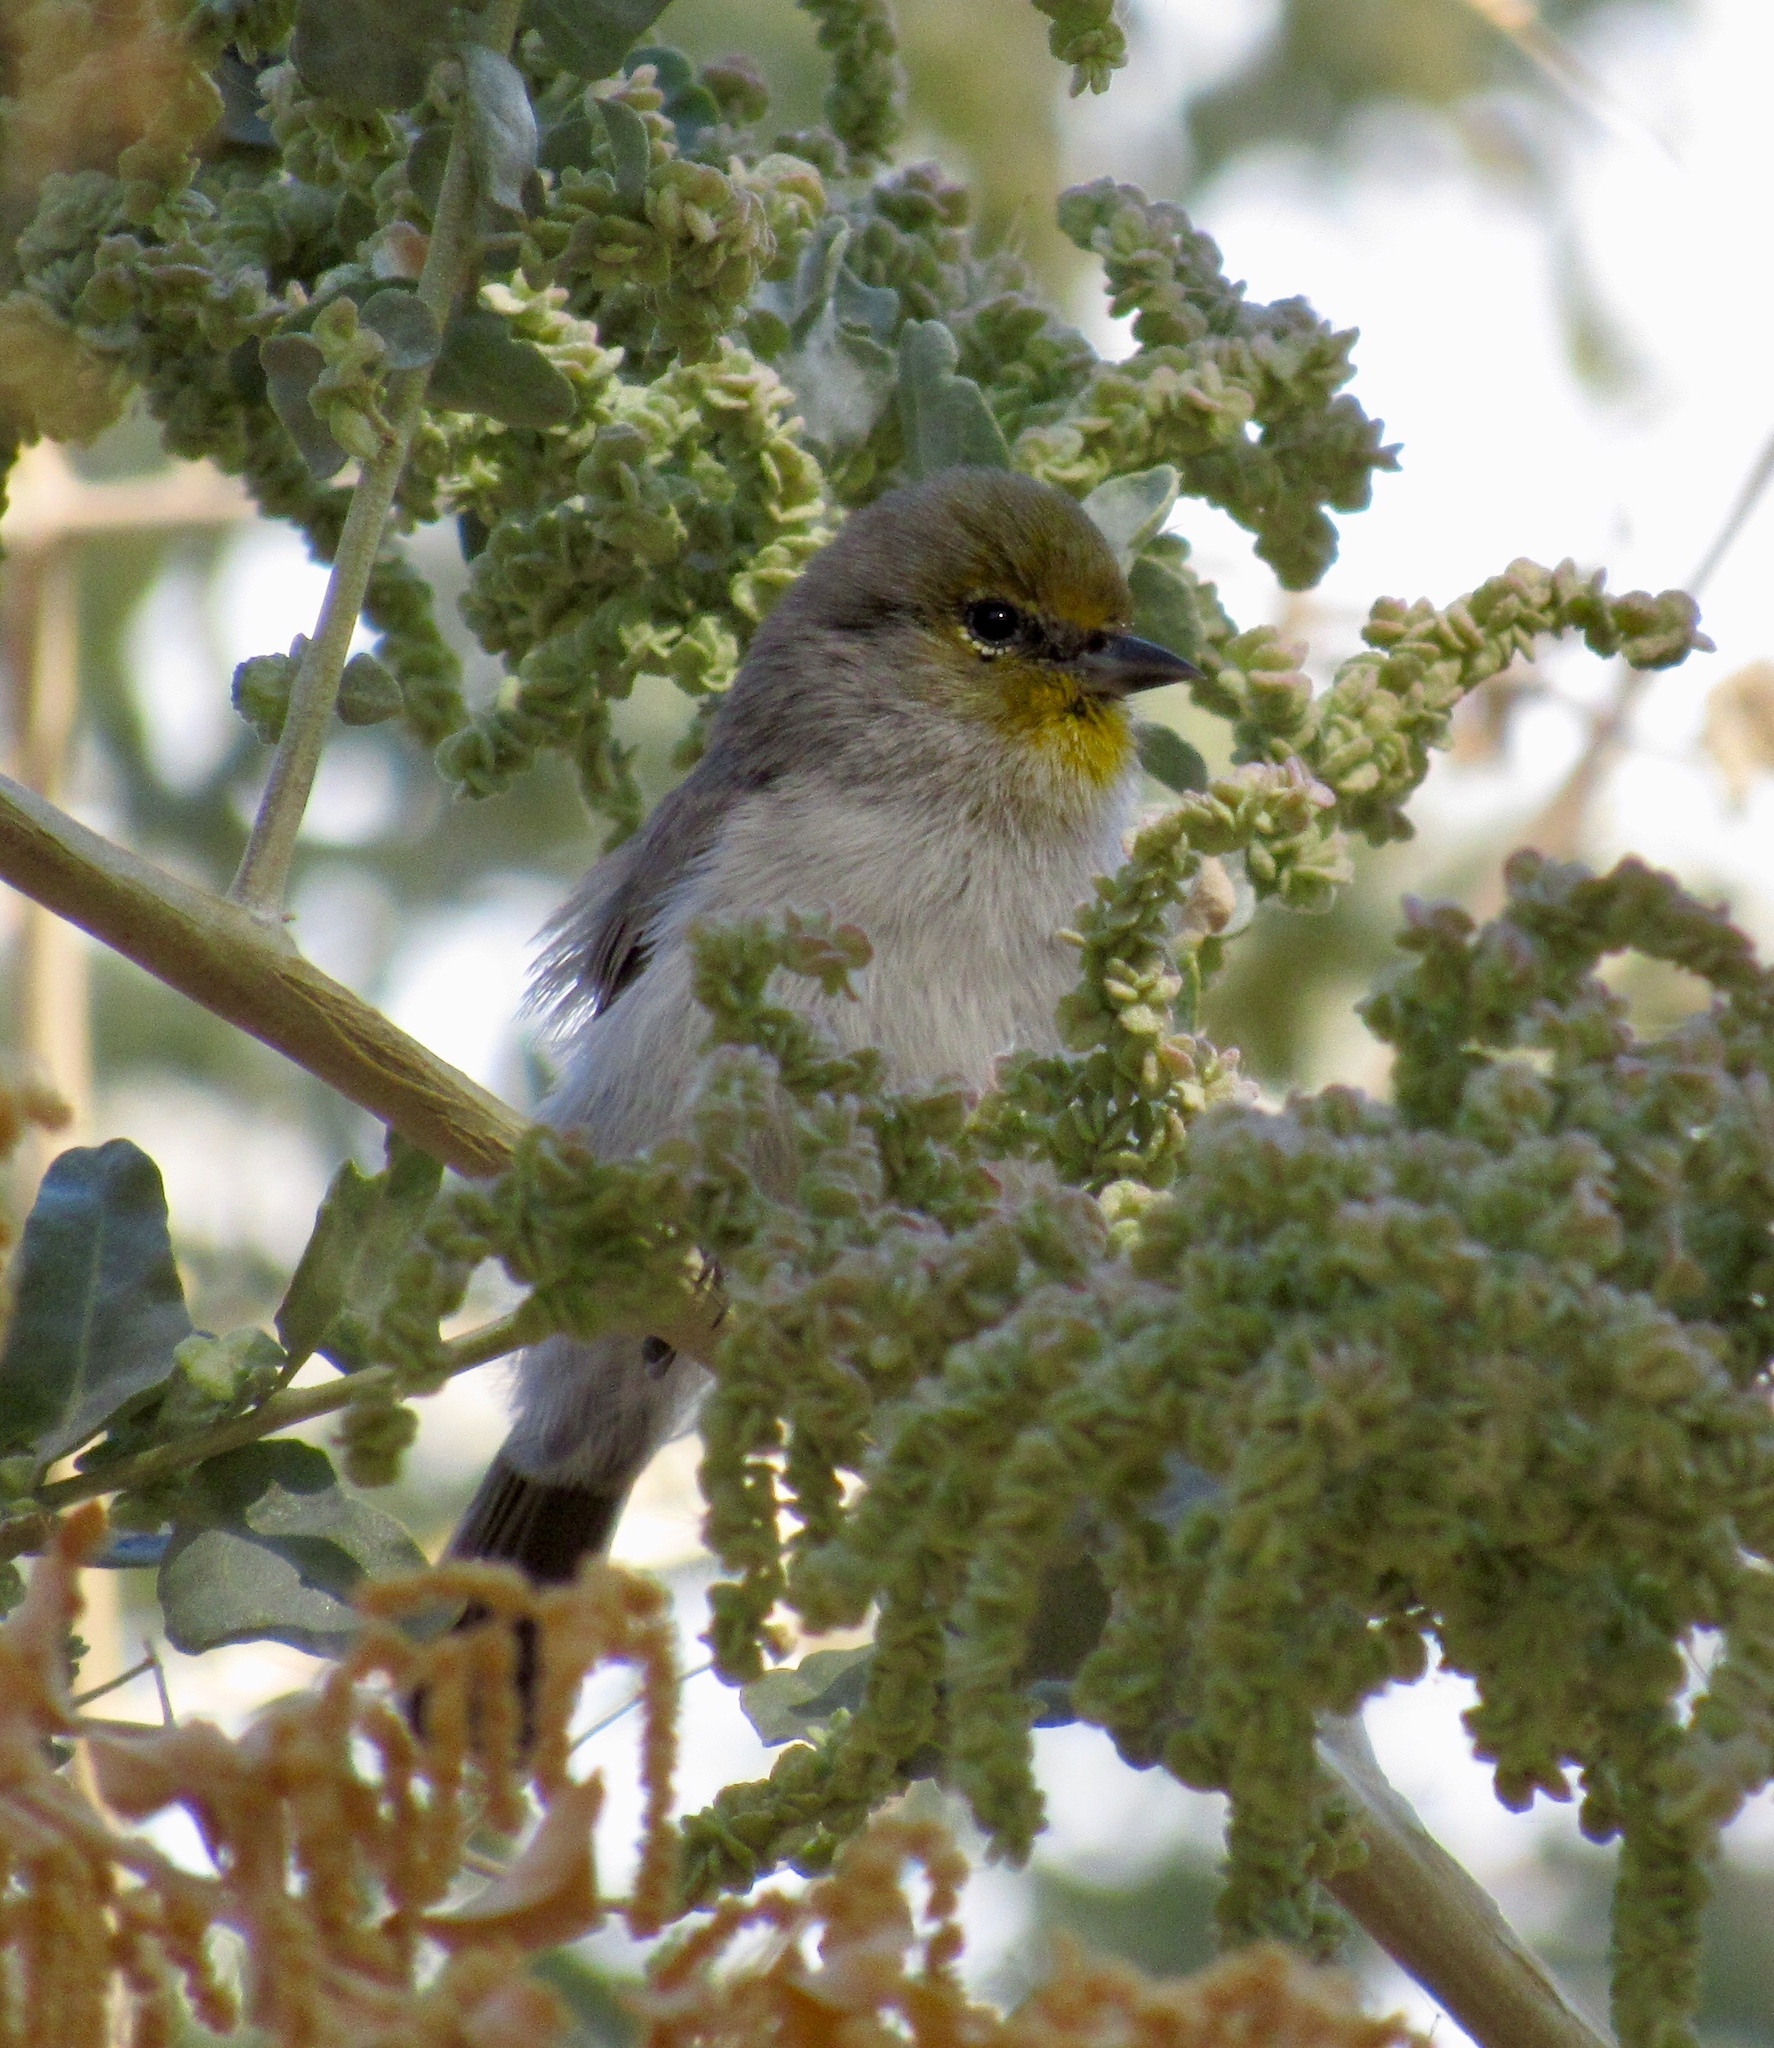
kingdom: Animalia
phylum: Chordata
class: Aves
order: Passeriformes
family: Remizidae
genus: Auriparus
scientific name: Auriparus flaviceps
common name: Verdin
